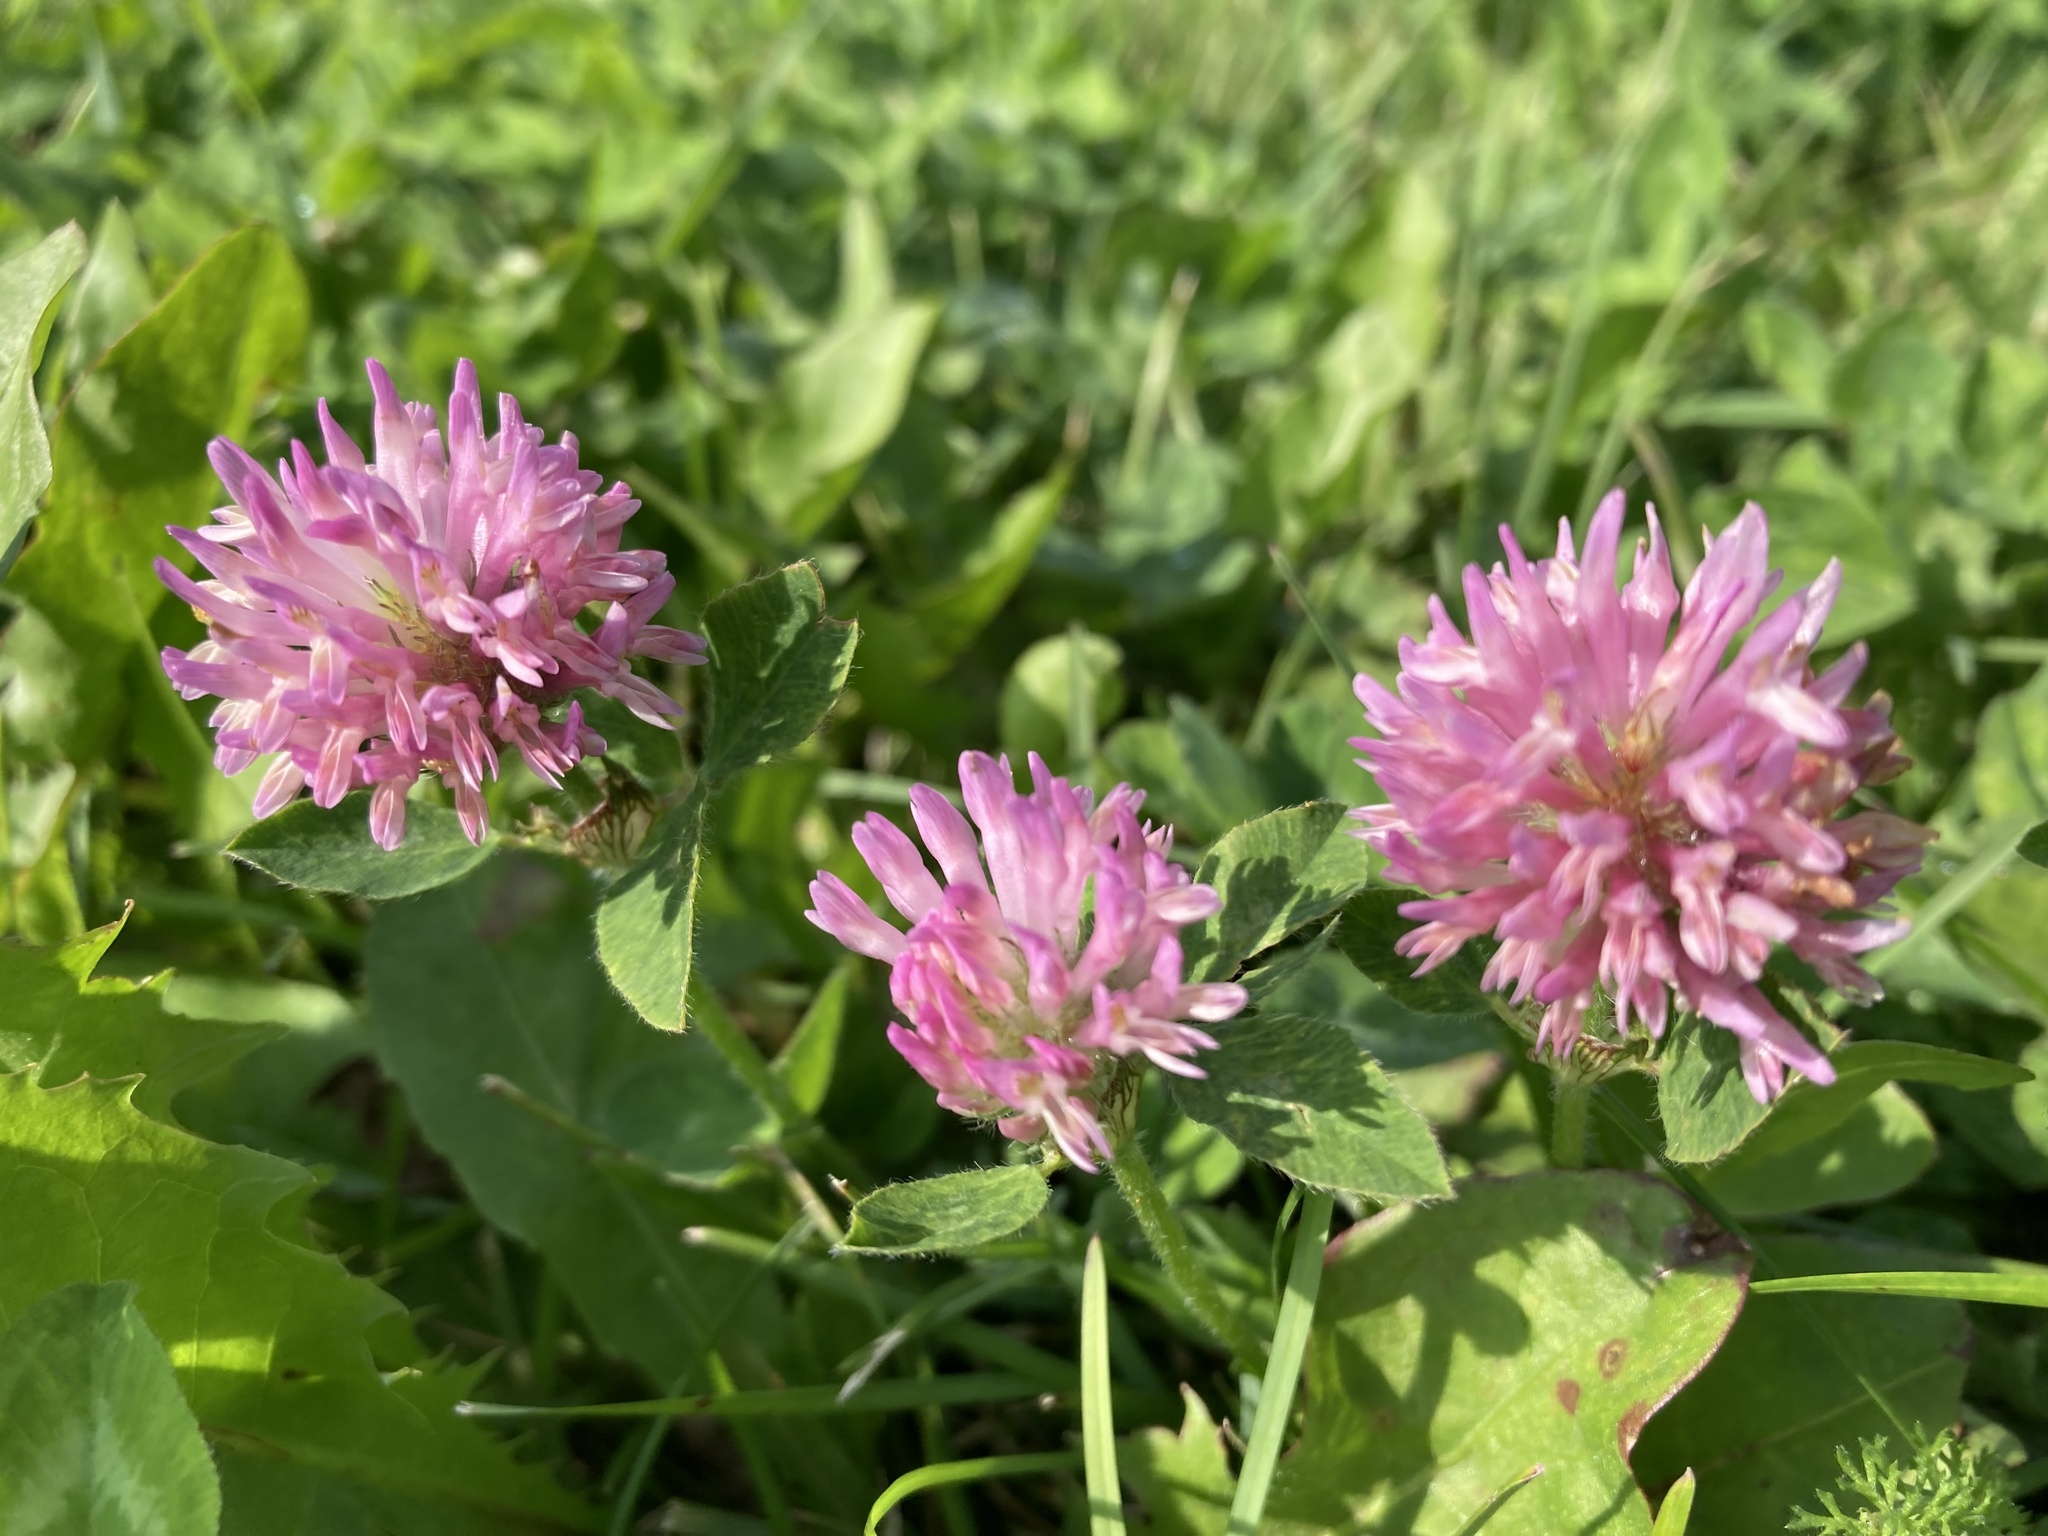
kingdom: Plantae
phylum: Tracheophyta
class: Magnoliopsida
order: Fabales
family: Fabaceae
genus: Trifolium
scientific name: Trifolium pratense
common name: Red clover
